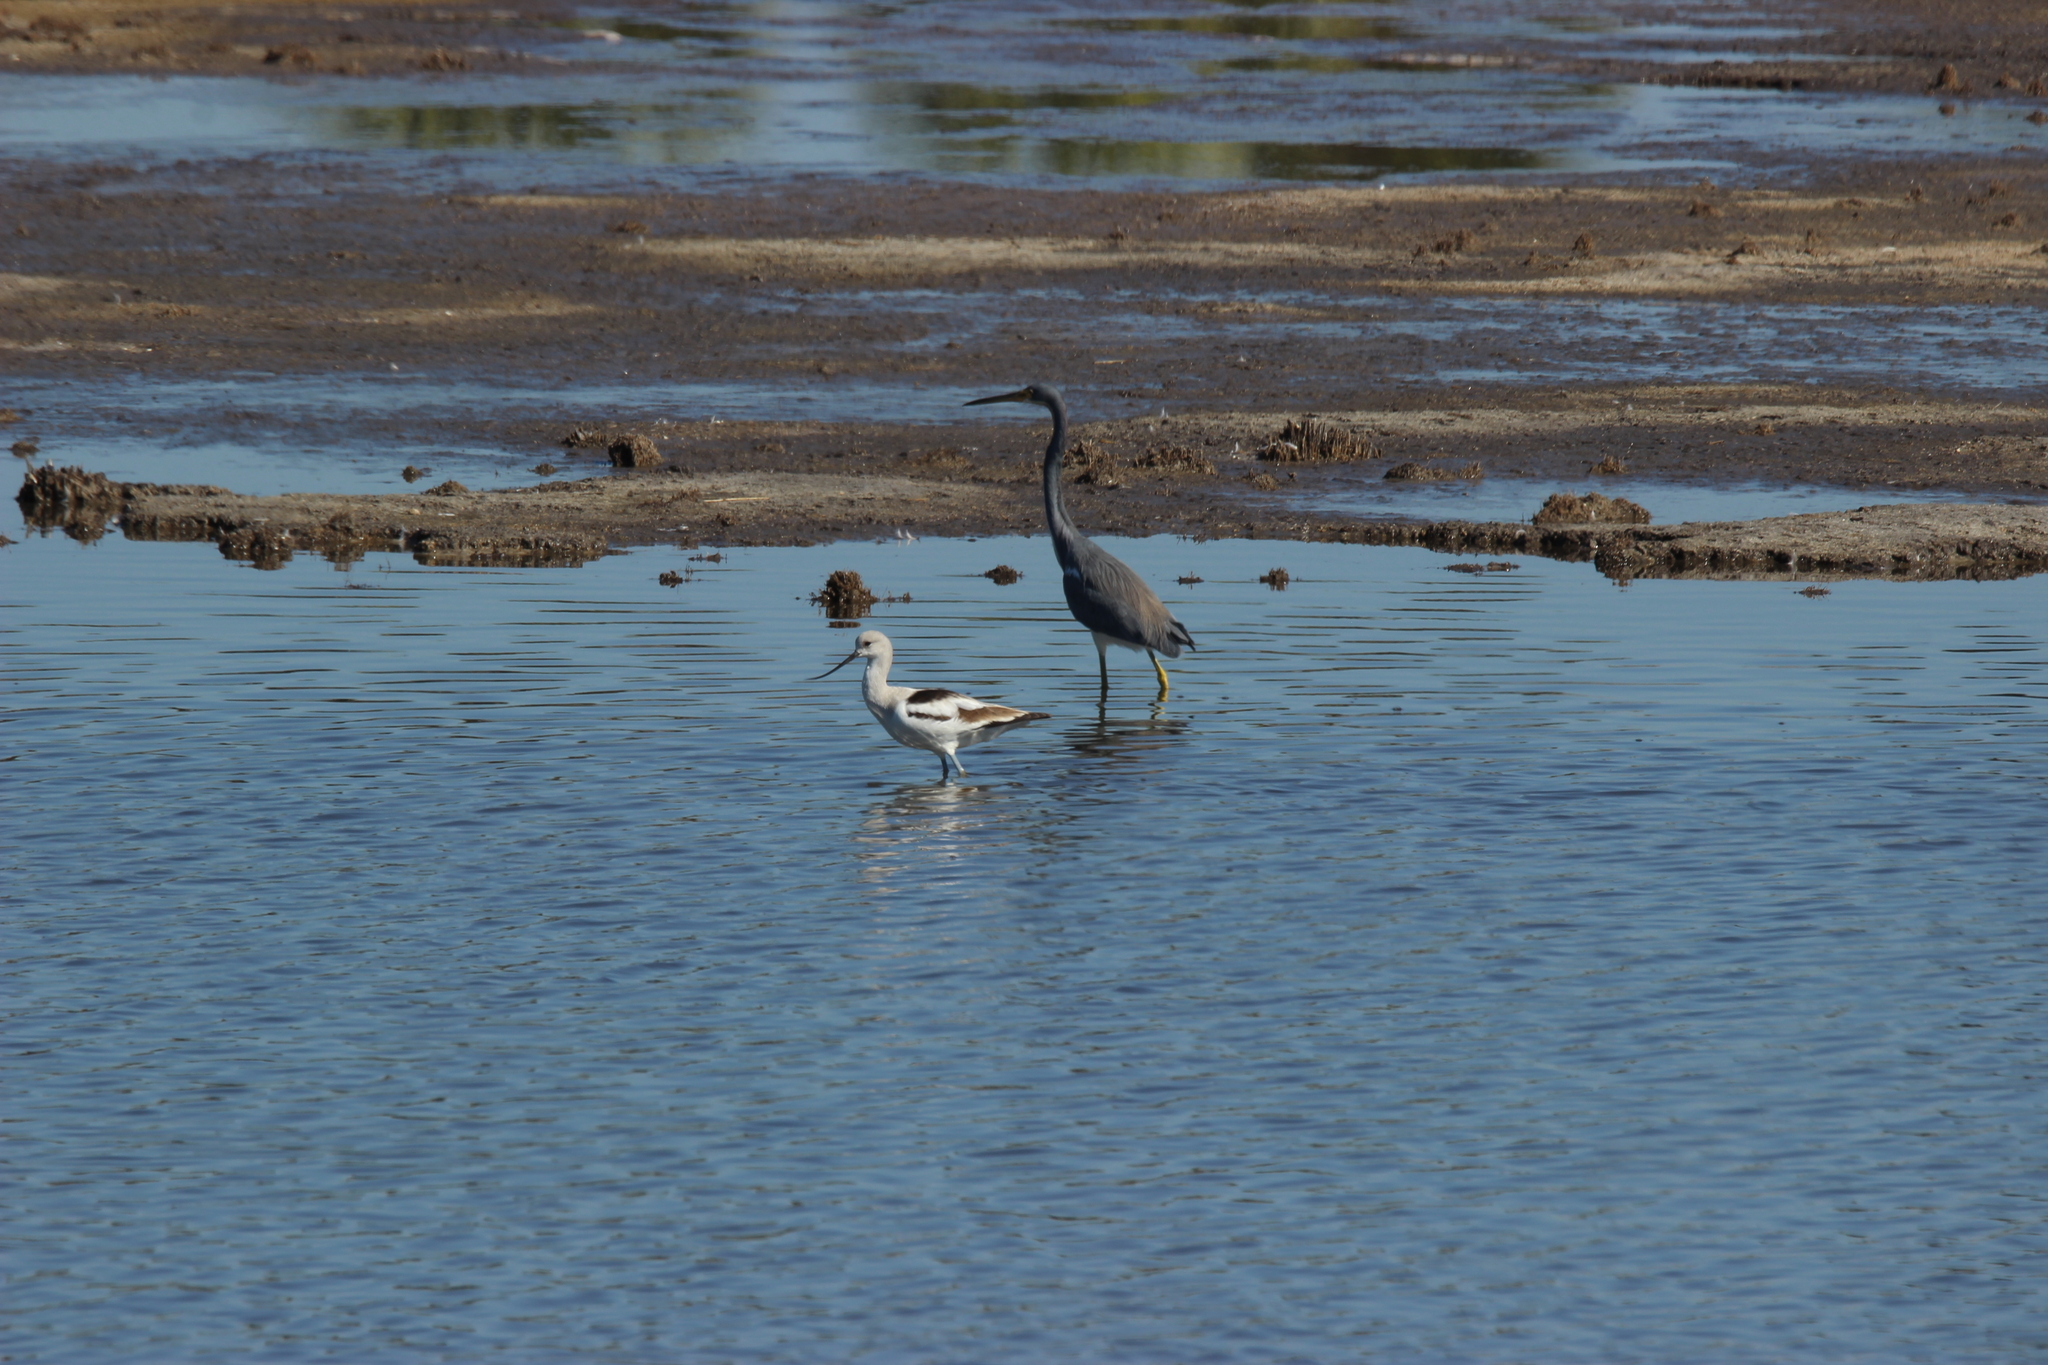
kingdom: Animalia
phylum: Chordata
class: Aves
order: Charadriiformes
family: Recurvirostridae
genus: Recurvirostra
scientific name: Recurvirostra americana
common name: American avocet
